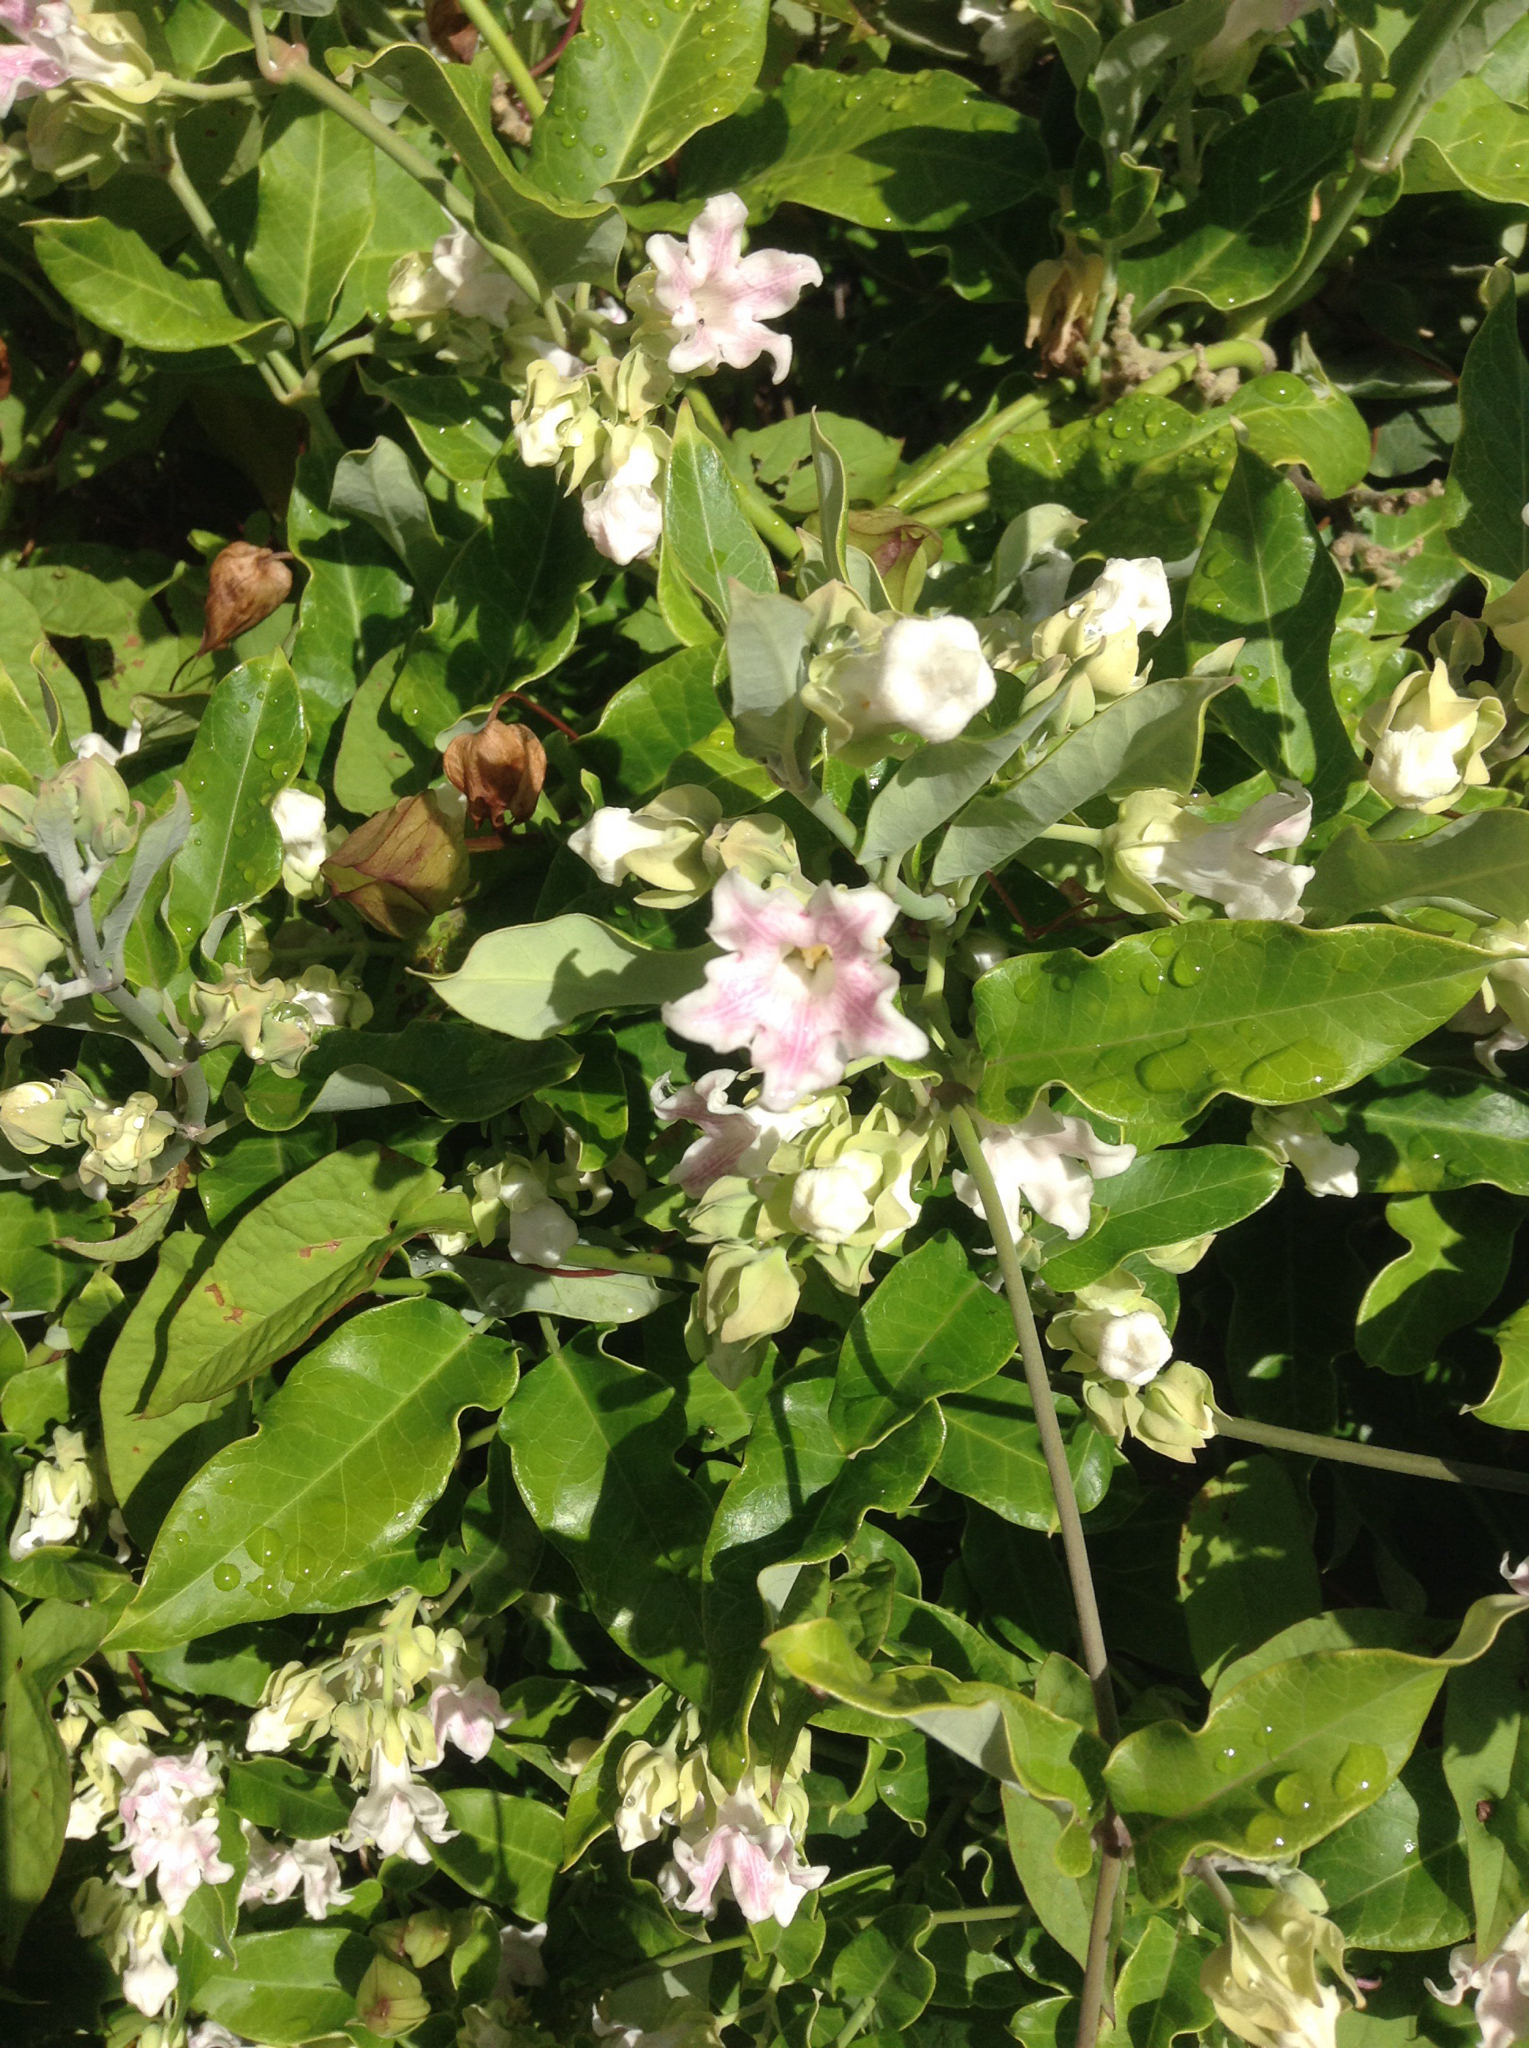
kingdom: Plantae
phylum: Tracheophyta
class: Magnoliopsida
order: Gentianales
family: Apocynaceae
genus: Araujia
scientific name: Araujia sericifera
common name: White bladderflower
